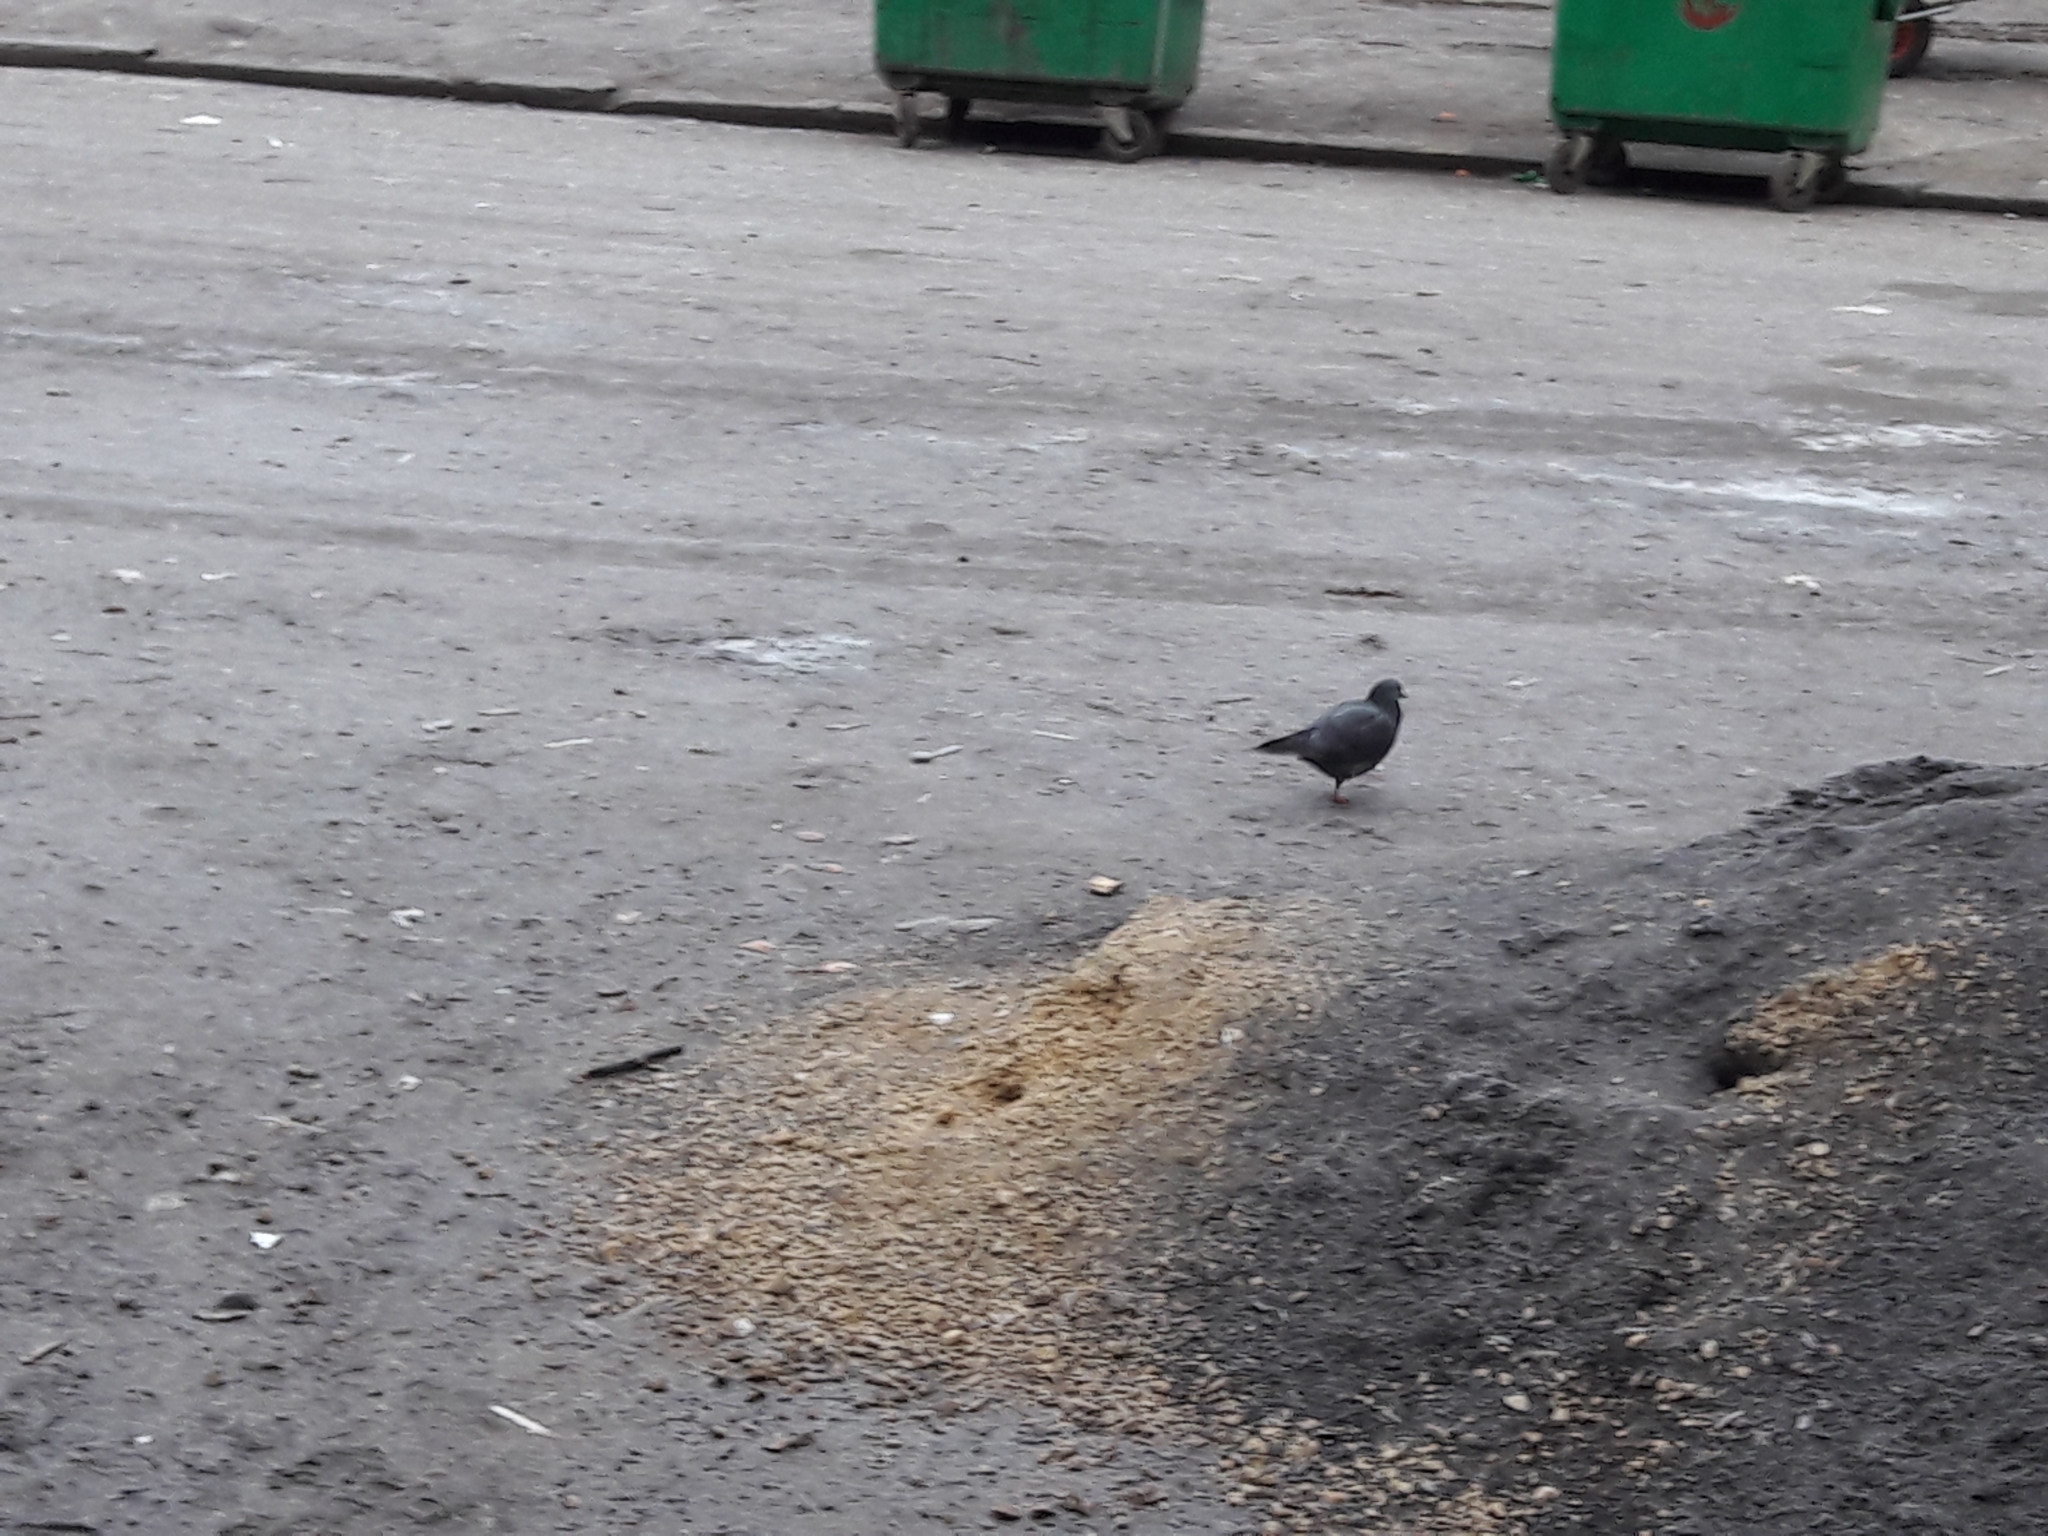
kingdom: Animalia
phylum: Chordata
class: Aves
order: Columbiformes
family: Columbidae
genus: Columba
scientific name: Columba livia
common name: Rock pigeon
